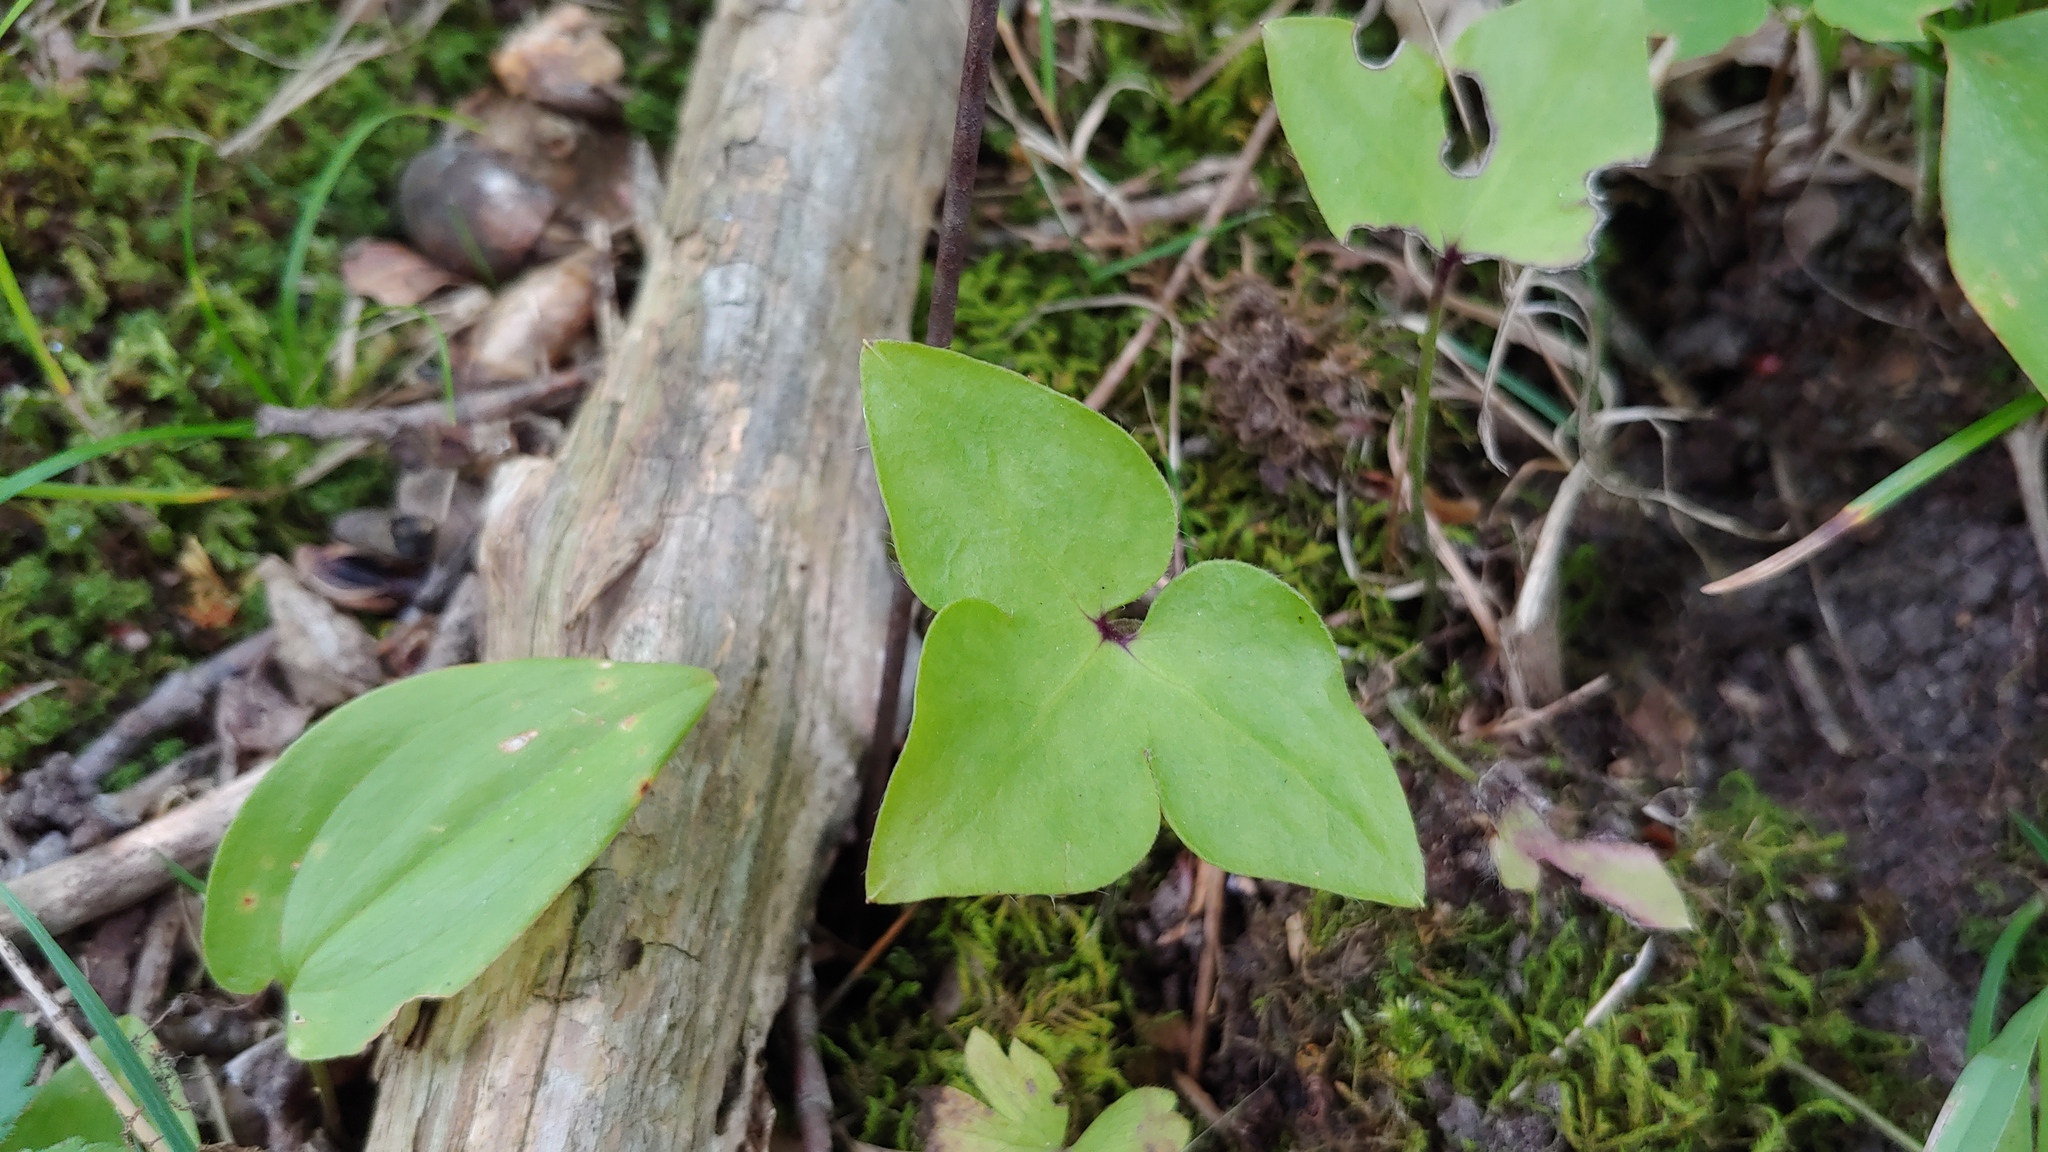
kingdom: Plantae
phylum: Tracheophyta
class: Magnoliopsida
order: Ranunculales
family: Ranunculaceae
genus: Hepatica
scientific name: Hepatica acutiloba
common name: Sharp-lobed hepatica
